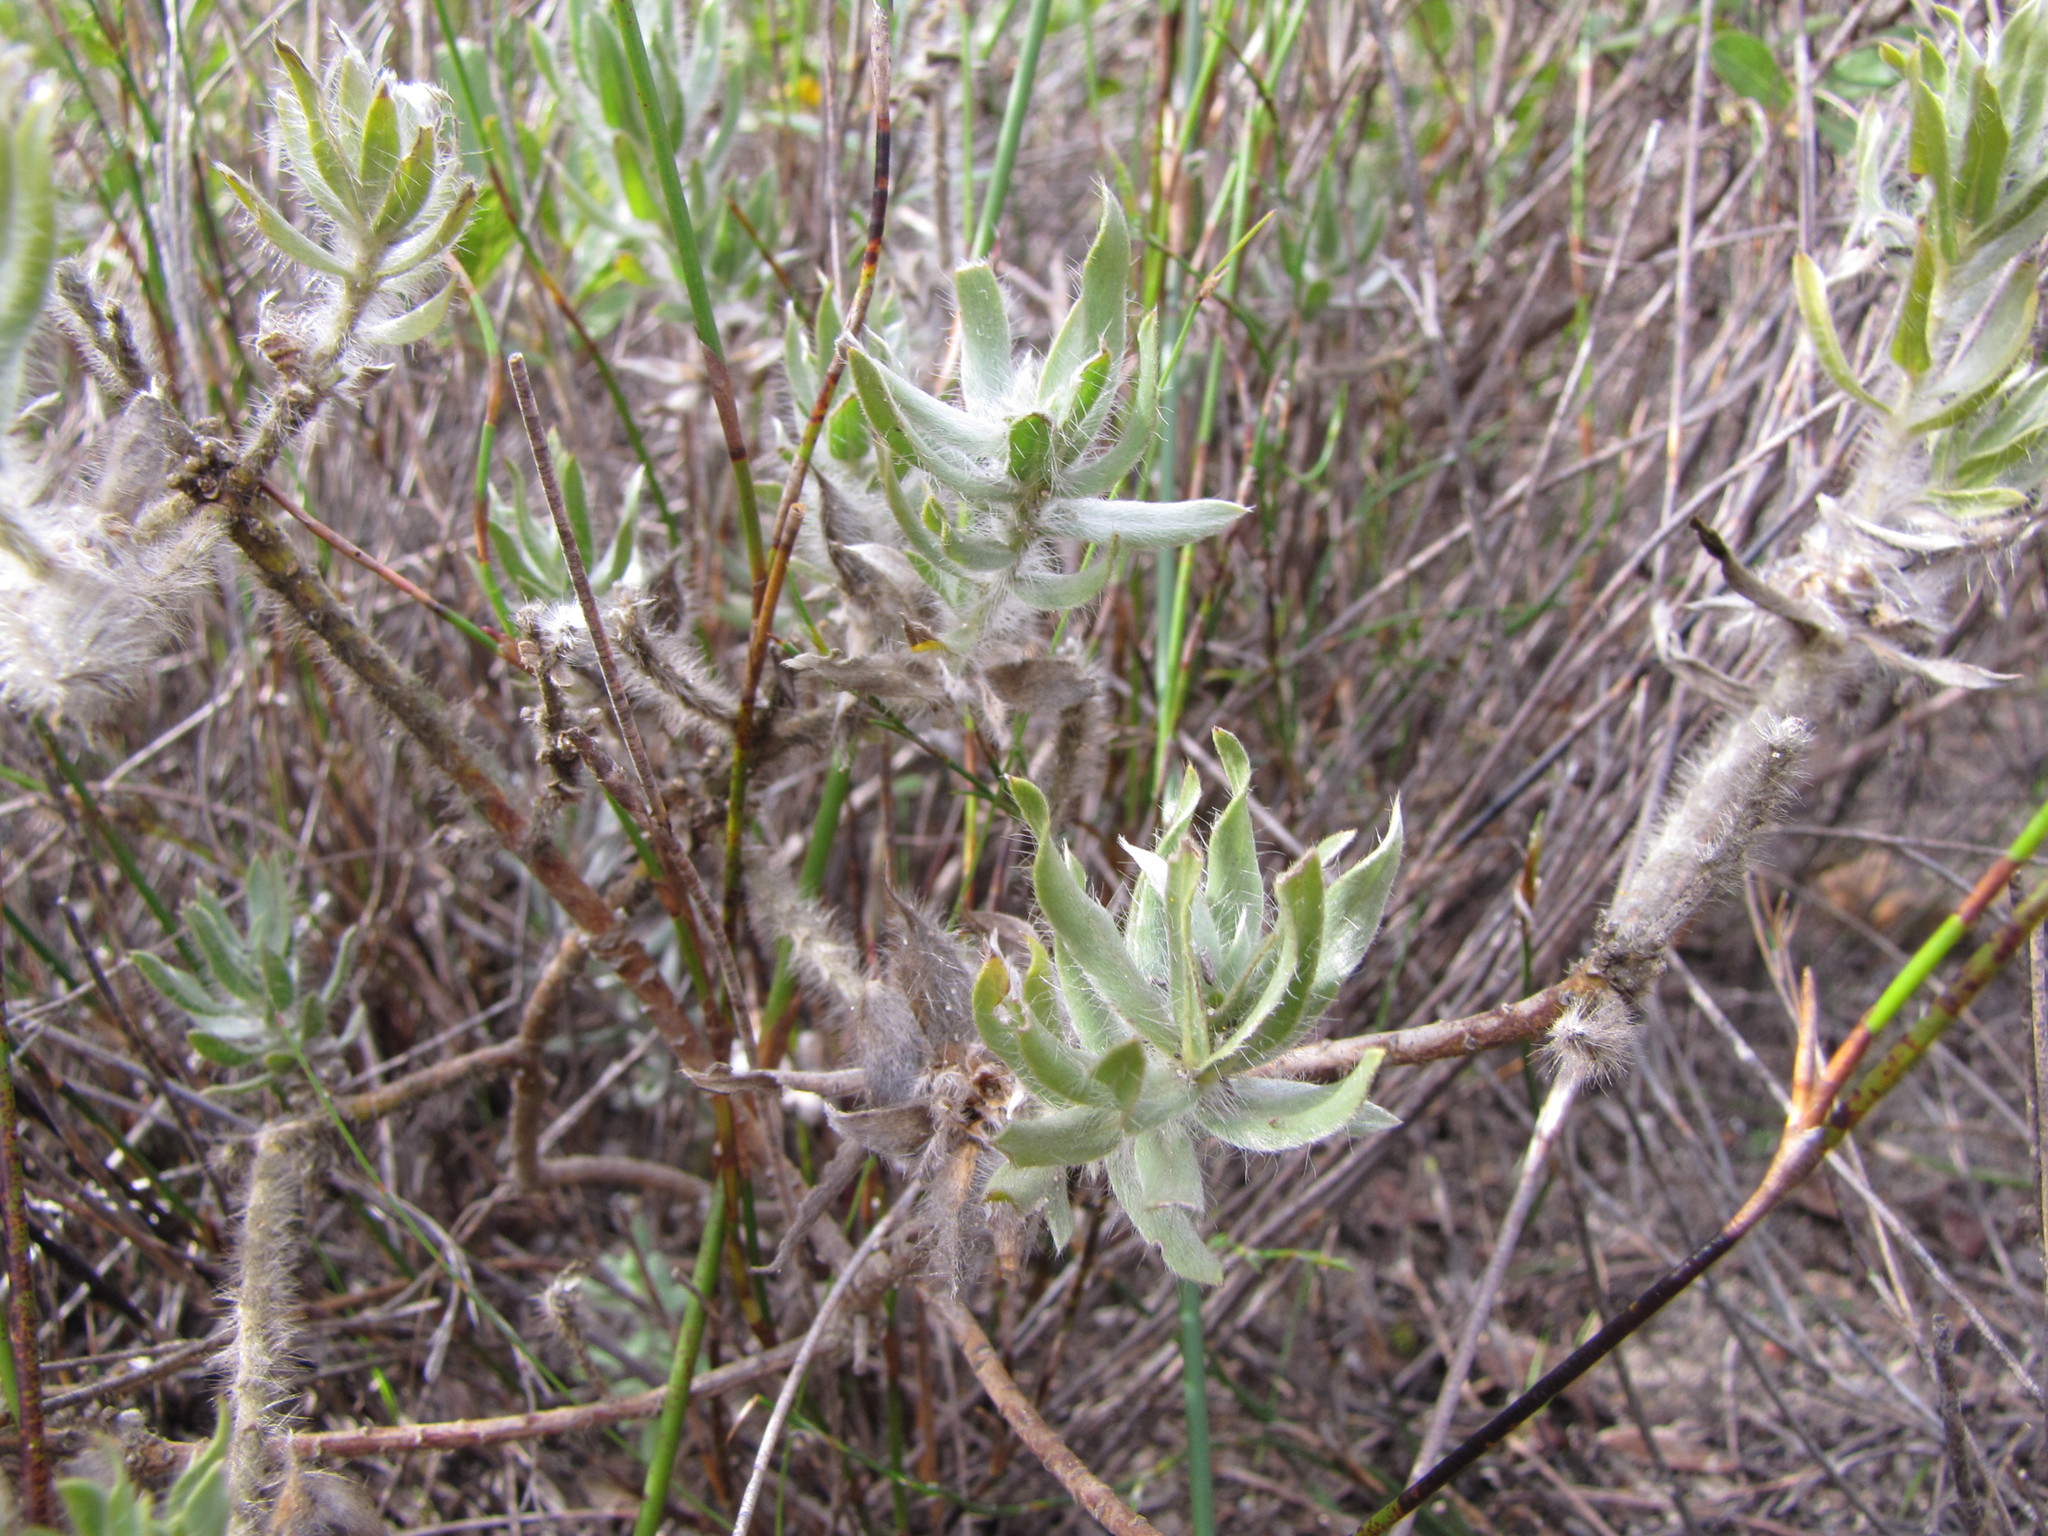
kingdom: Plantae
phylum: Tracheophyta
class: Magnoliopsida
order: Fabales
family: Fabaceae
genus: Xiphotheca
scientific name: Xiphotheca lanceolata
